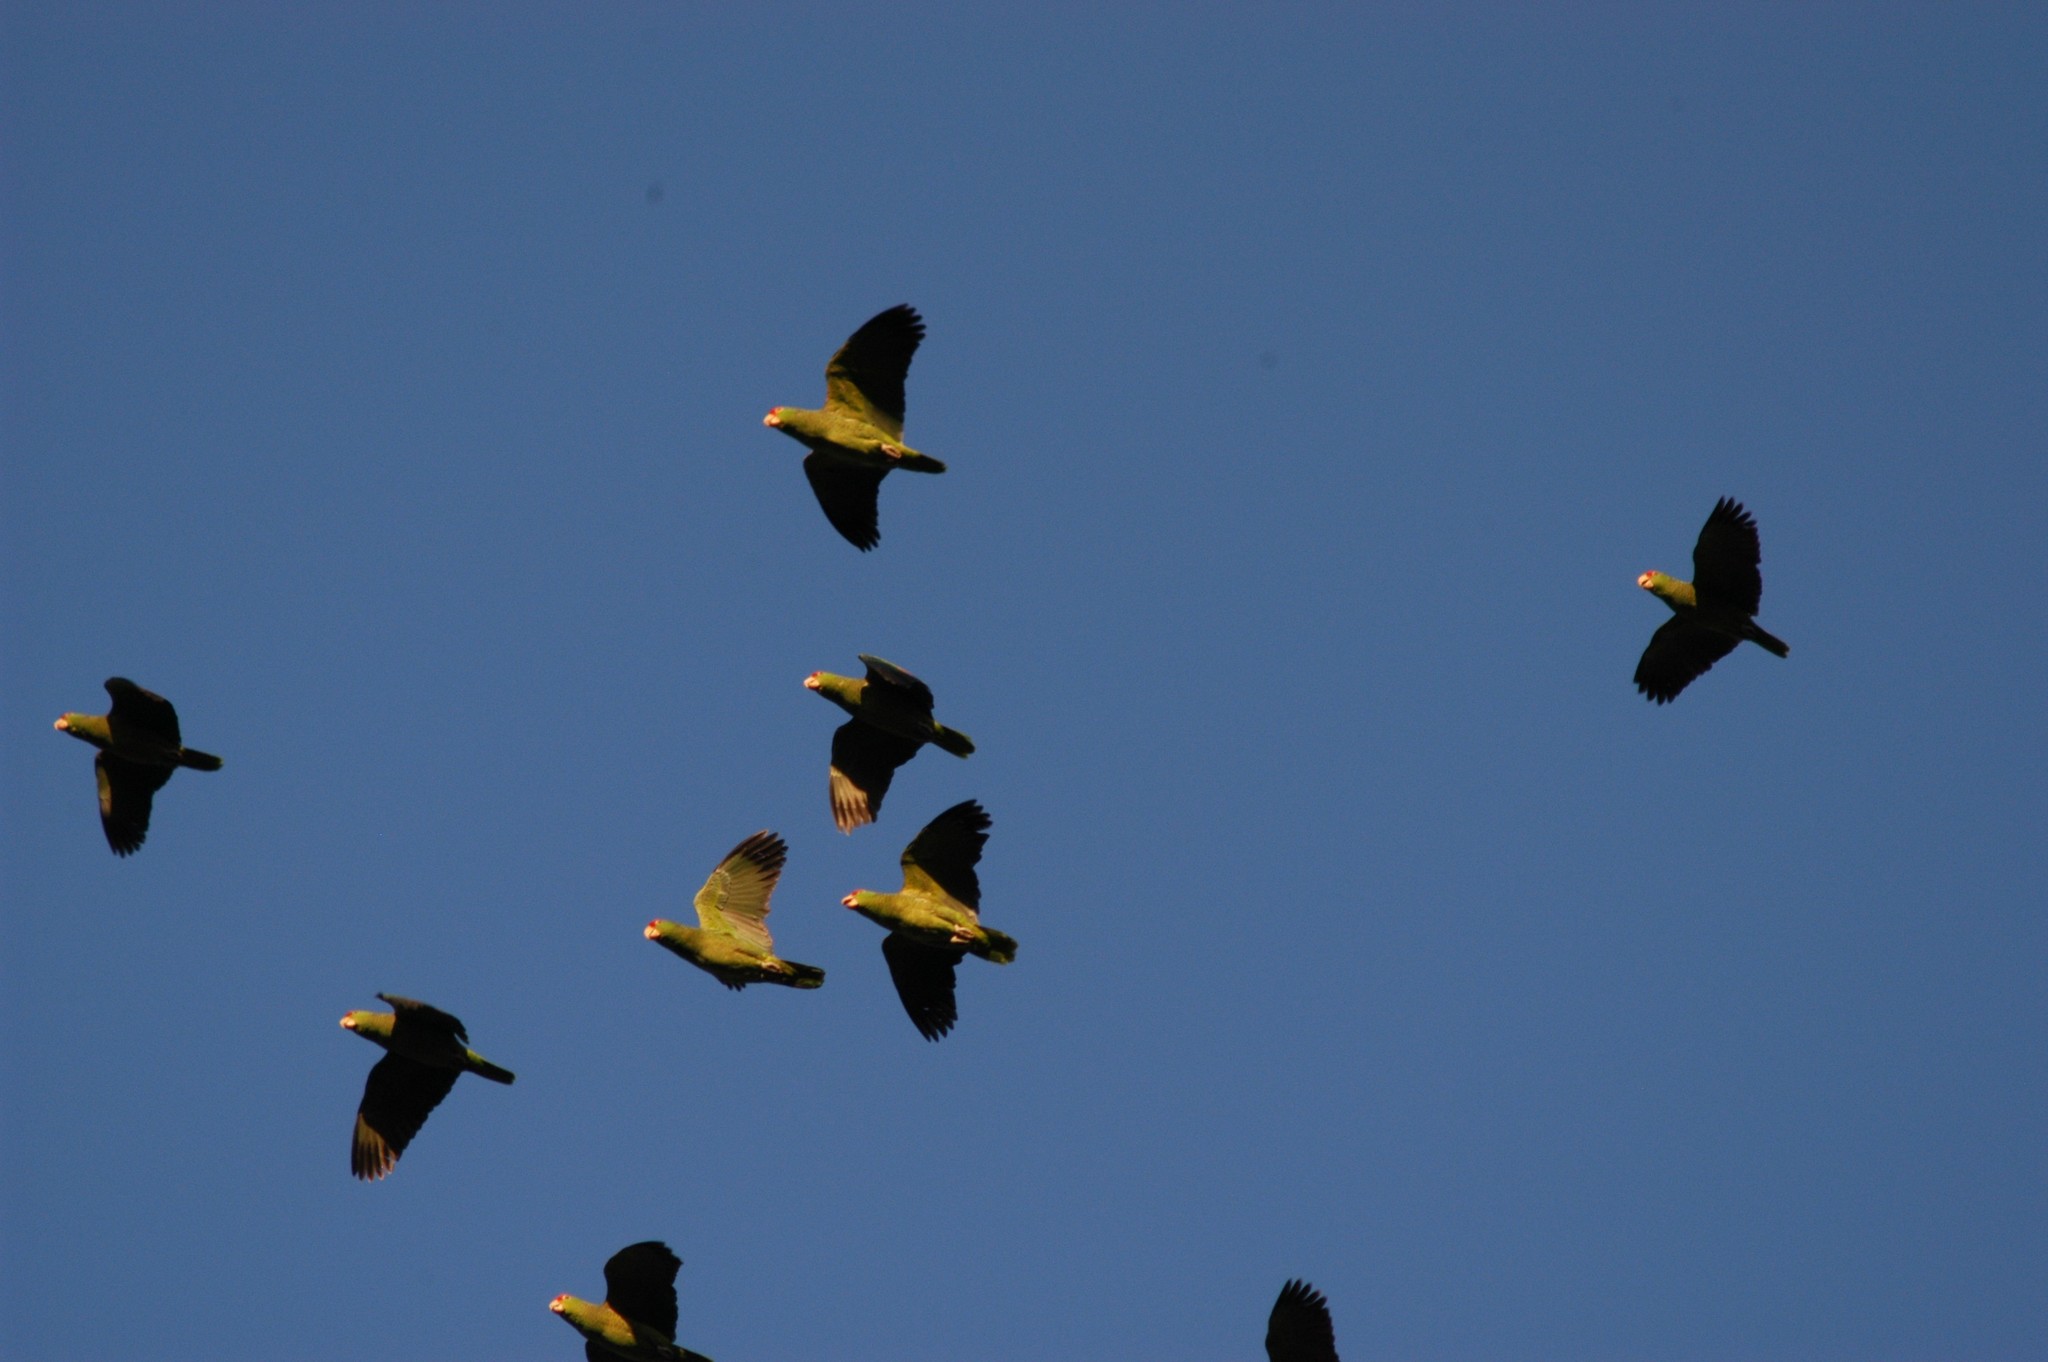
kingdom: Animalia
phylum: Chordata
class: Aves
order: Psittaciformes
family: Psittacidae
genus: Amazona
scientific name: Amazona viridigenalis
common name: Red-crowned amazon
